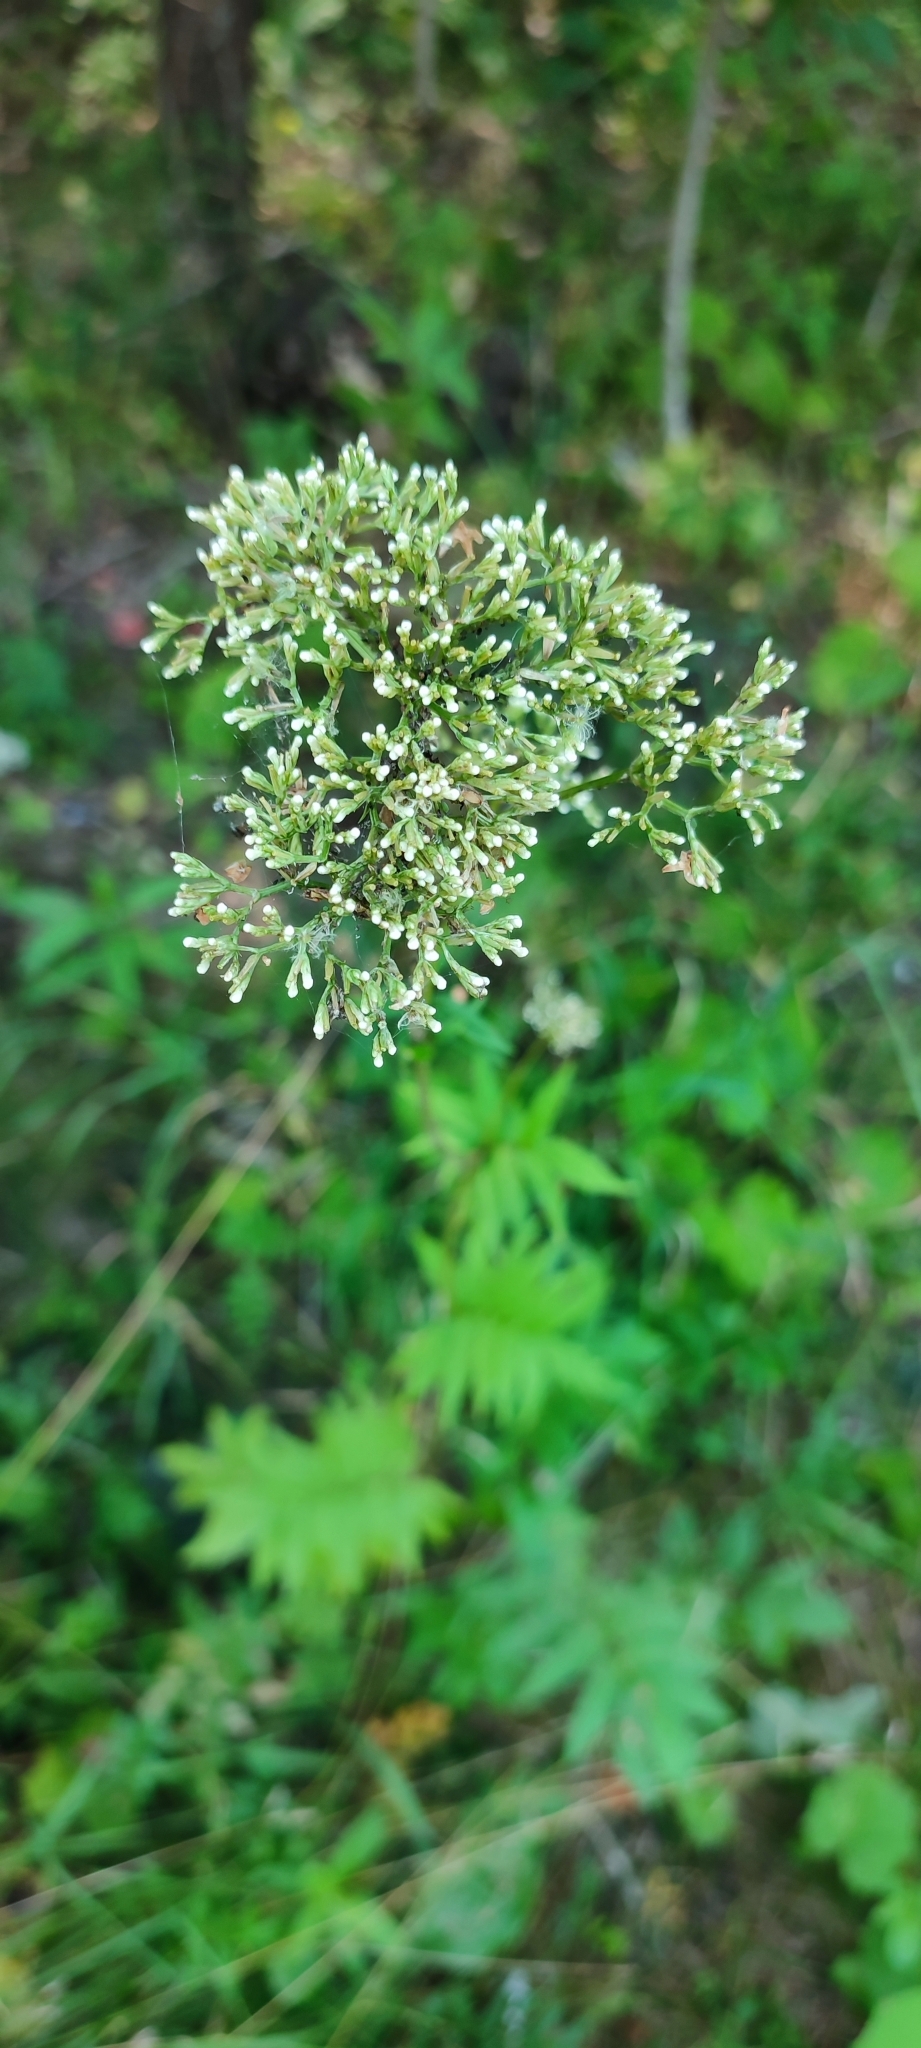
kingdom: Plantae
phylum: Tracheophyta
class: Magnoliopsida
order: Dipsacales
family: Caprifoliaceae
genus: Valeriana
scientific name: Valeriana wolgensis
